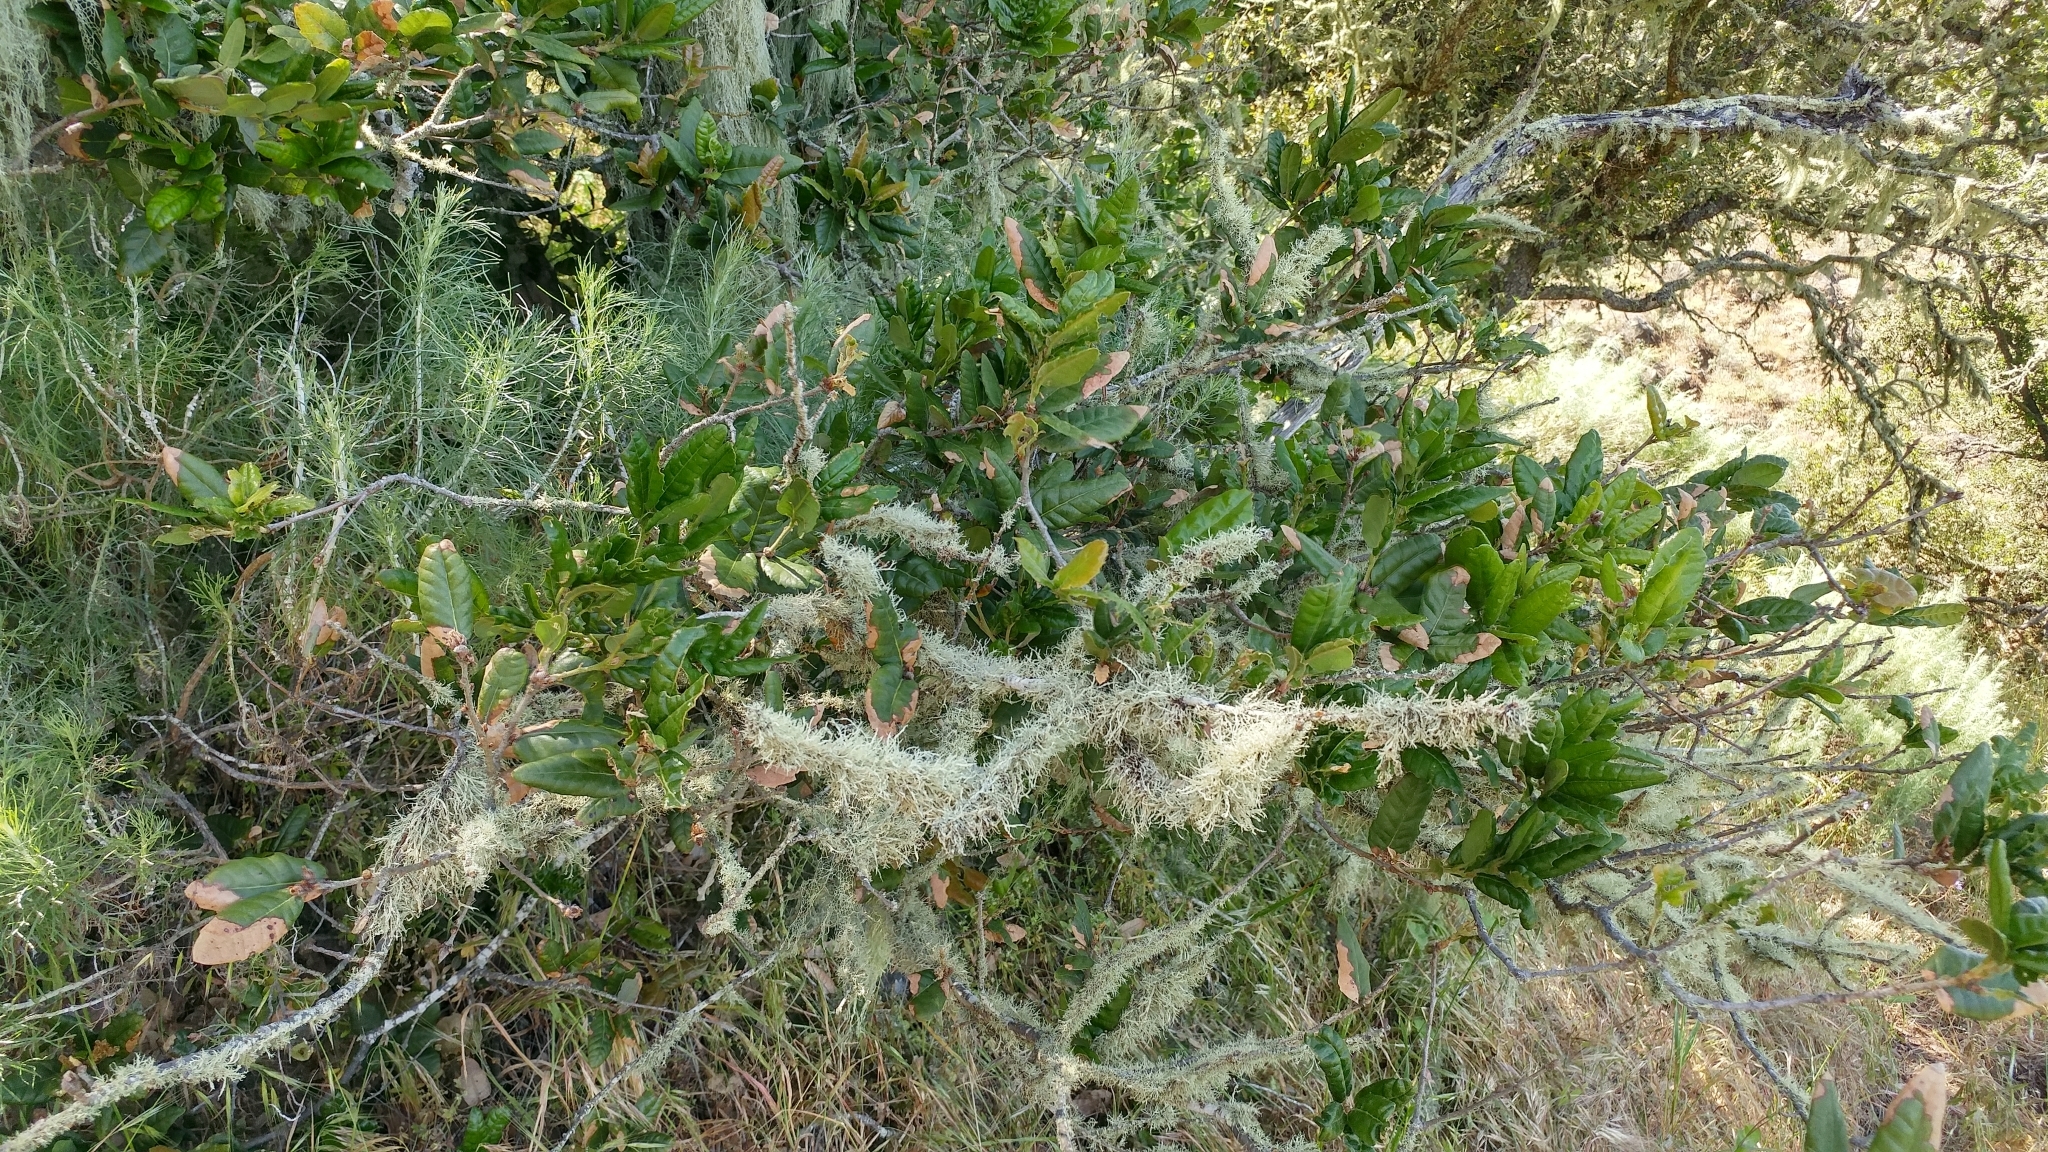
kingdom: Plantae
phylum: Tracheophyta
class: Magnoliopsida
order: Fagales
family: Fagaceae
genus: Quercus
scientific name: Quercus tomentella
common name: Island oak
